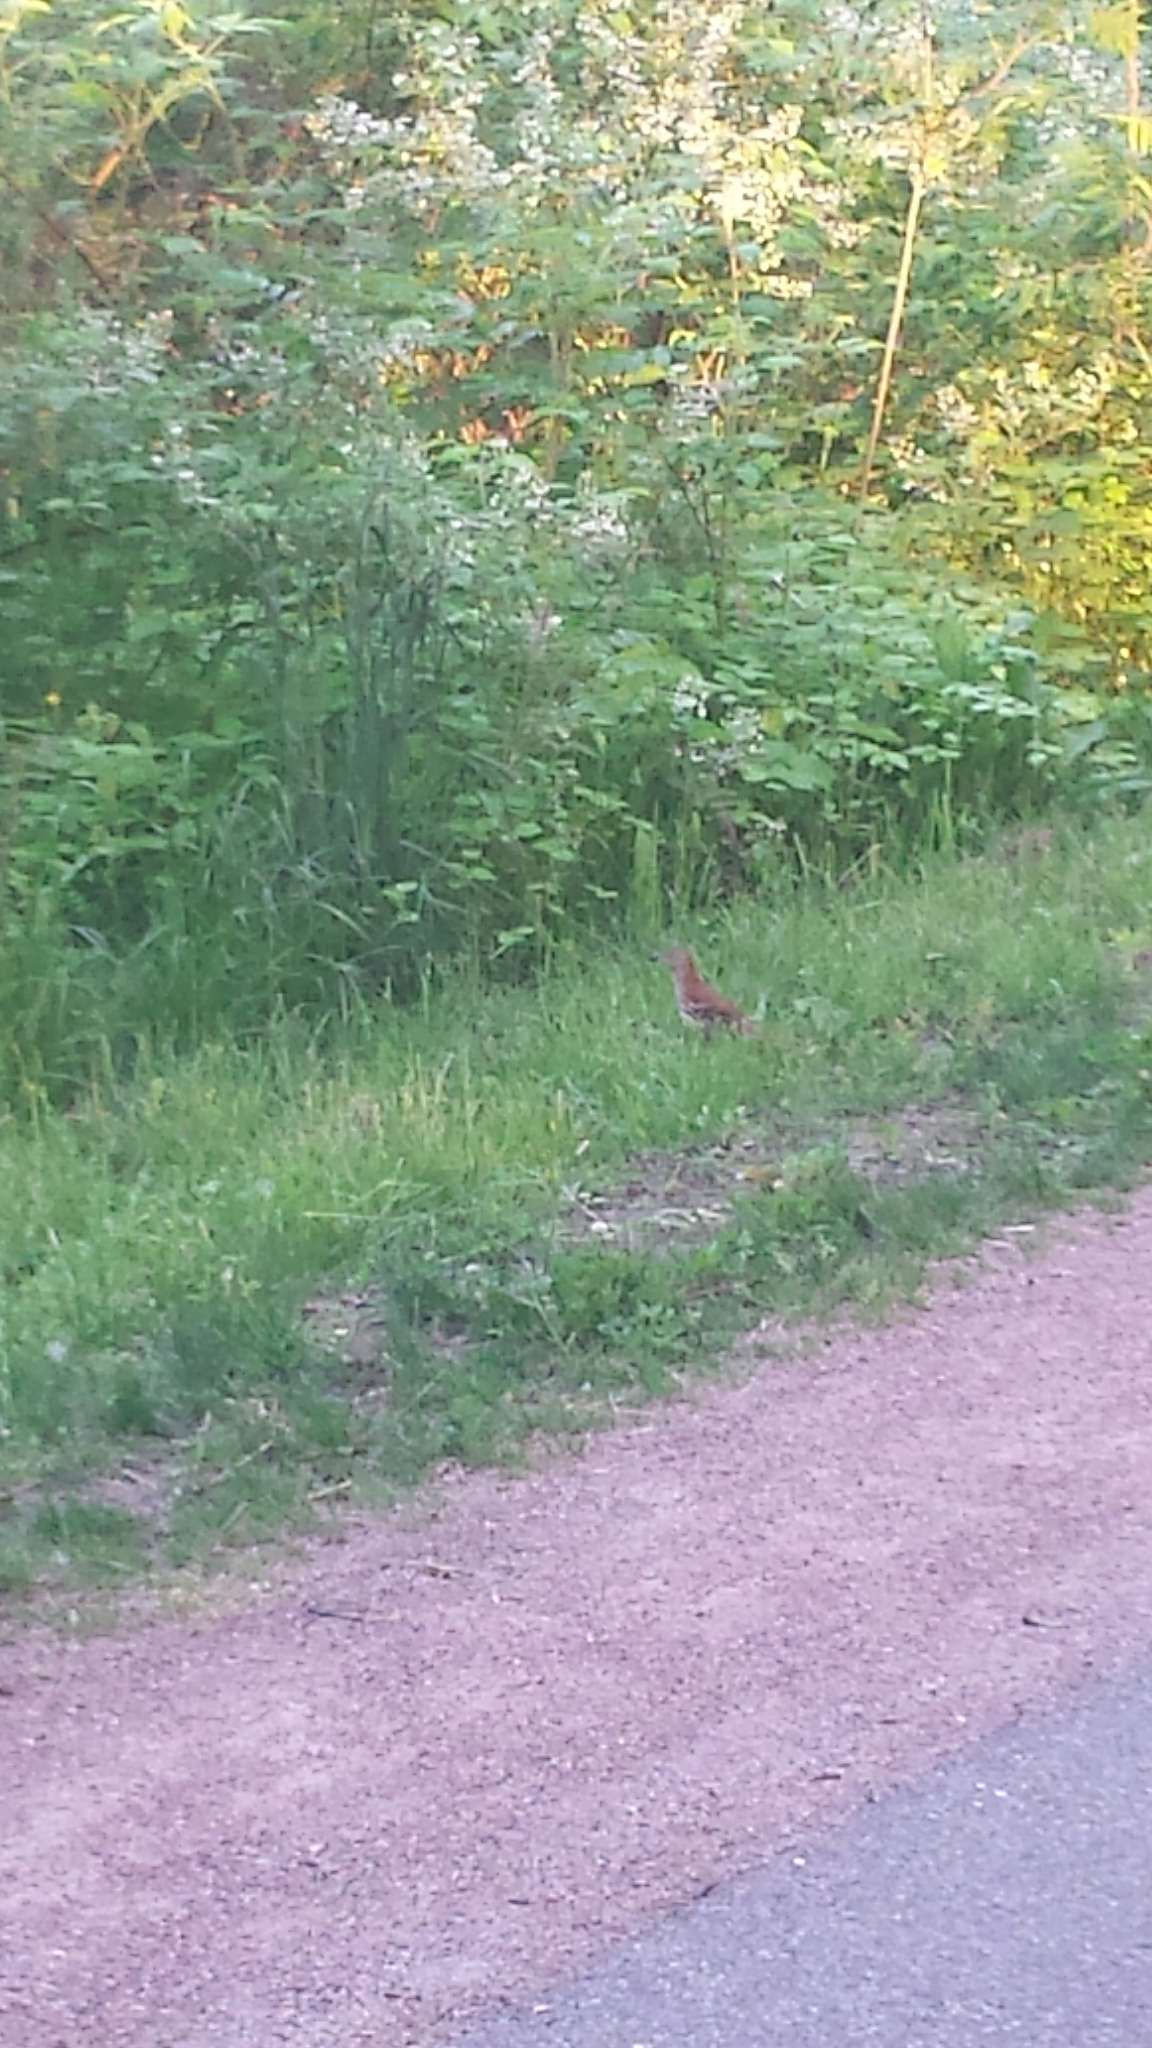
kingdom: Animalia
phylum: Chordata
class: Aves
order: Passeriformes
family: Mimidae
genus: Toxostoma
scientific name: Toxostoma rufum
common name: Brown thrasher
